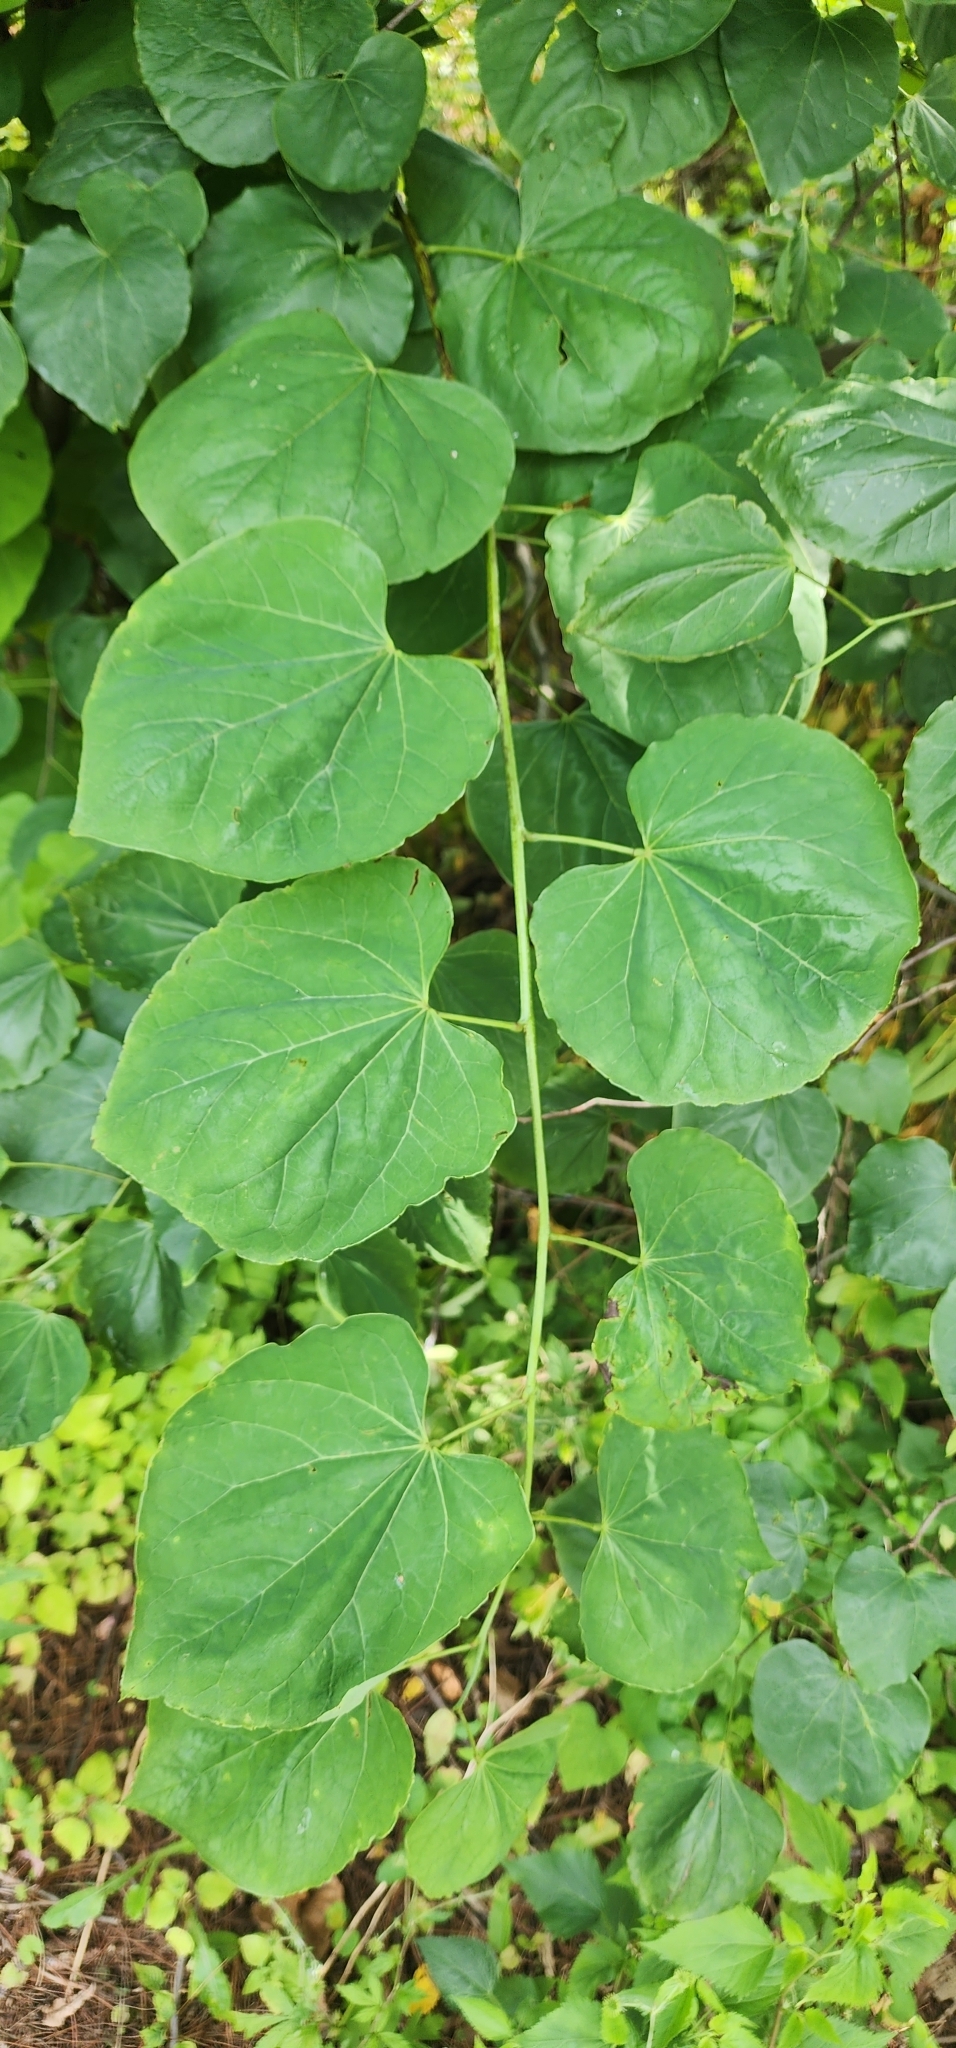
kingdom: Plantae
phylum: Tracheophyta
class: Magnoliopsida
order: Fabales
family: Fabaceae
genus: Cercis
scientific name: Cercis canadensis
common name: Eastern redbud
